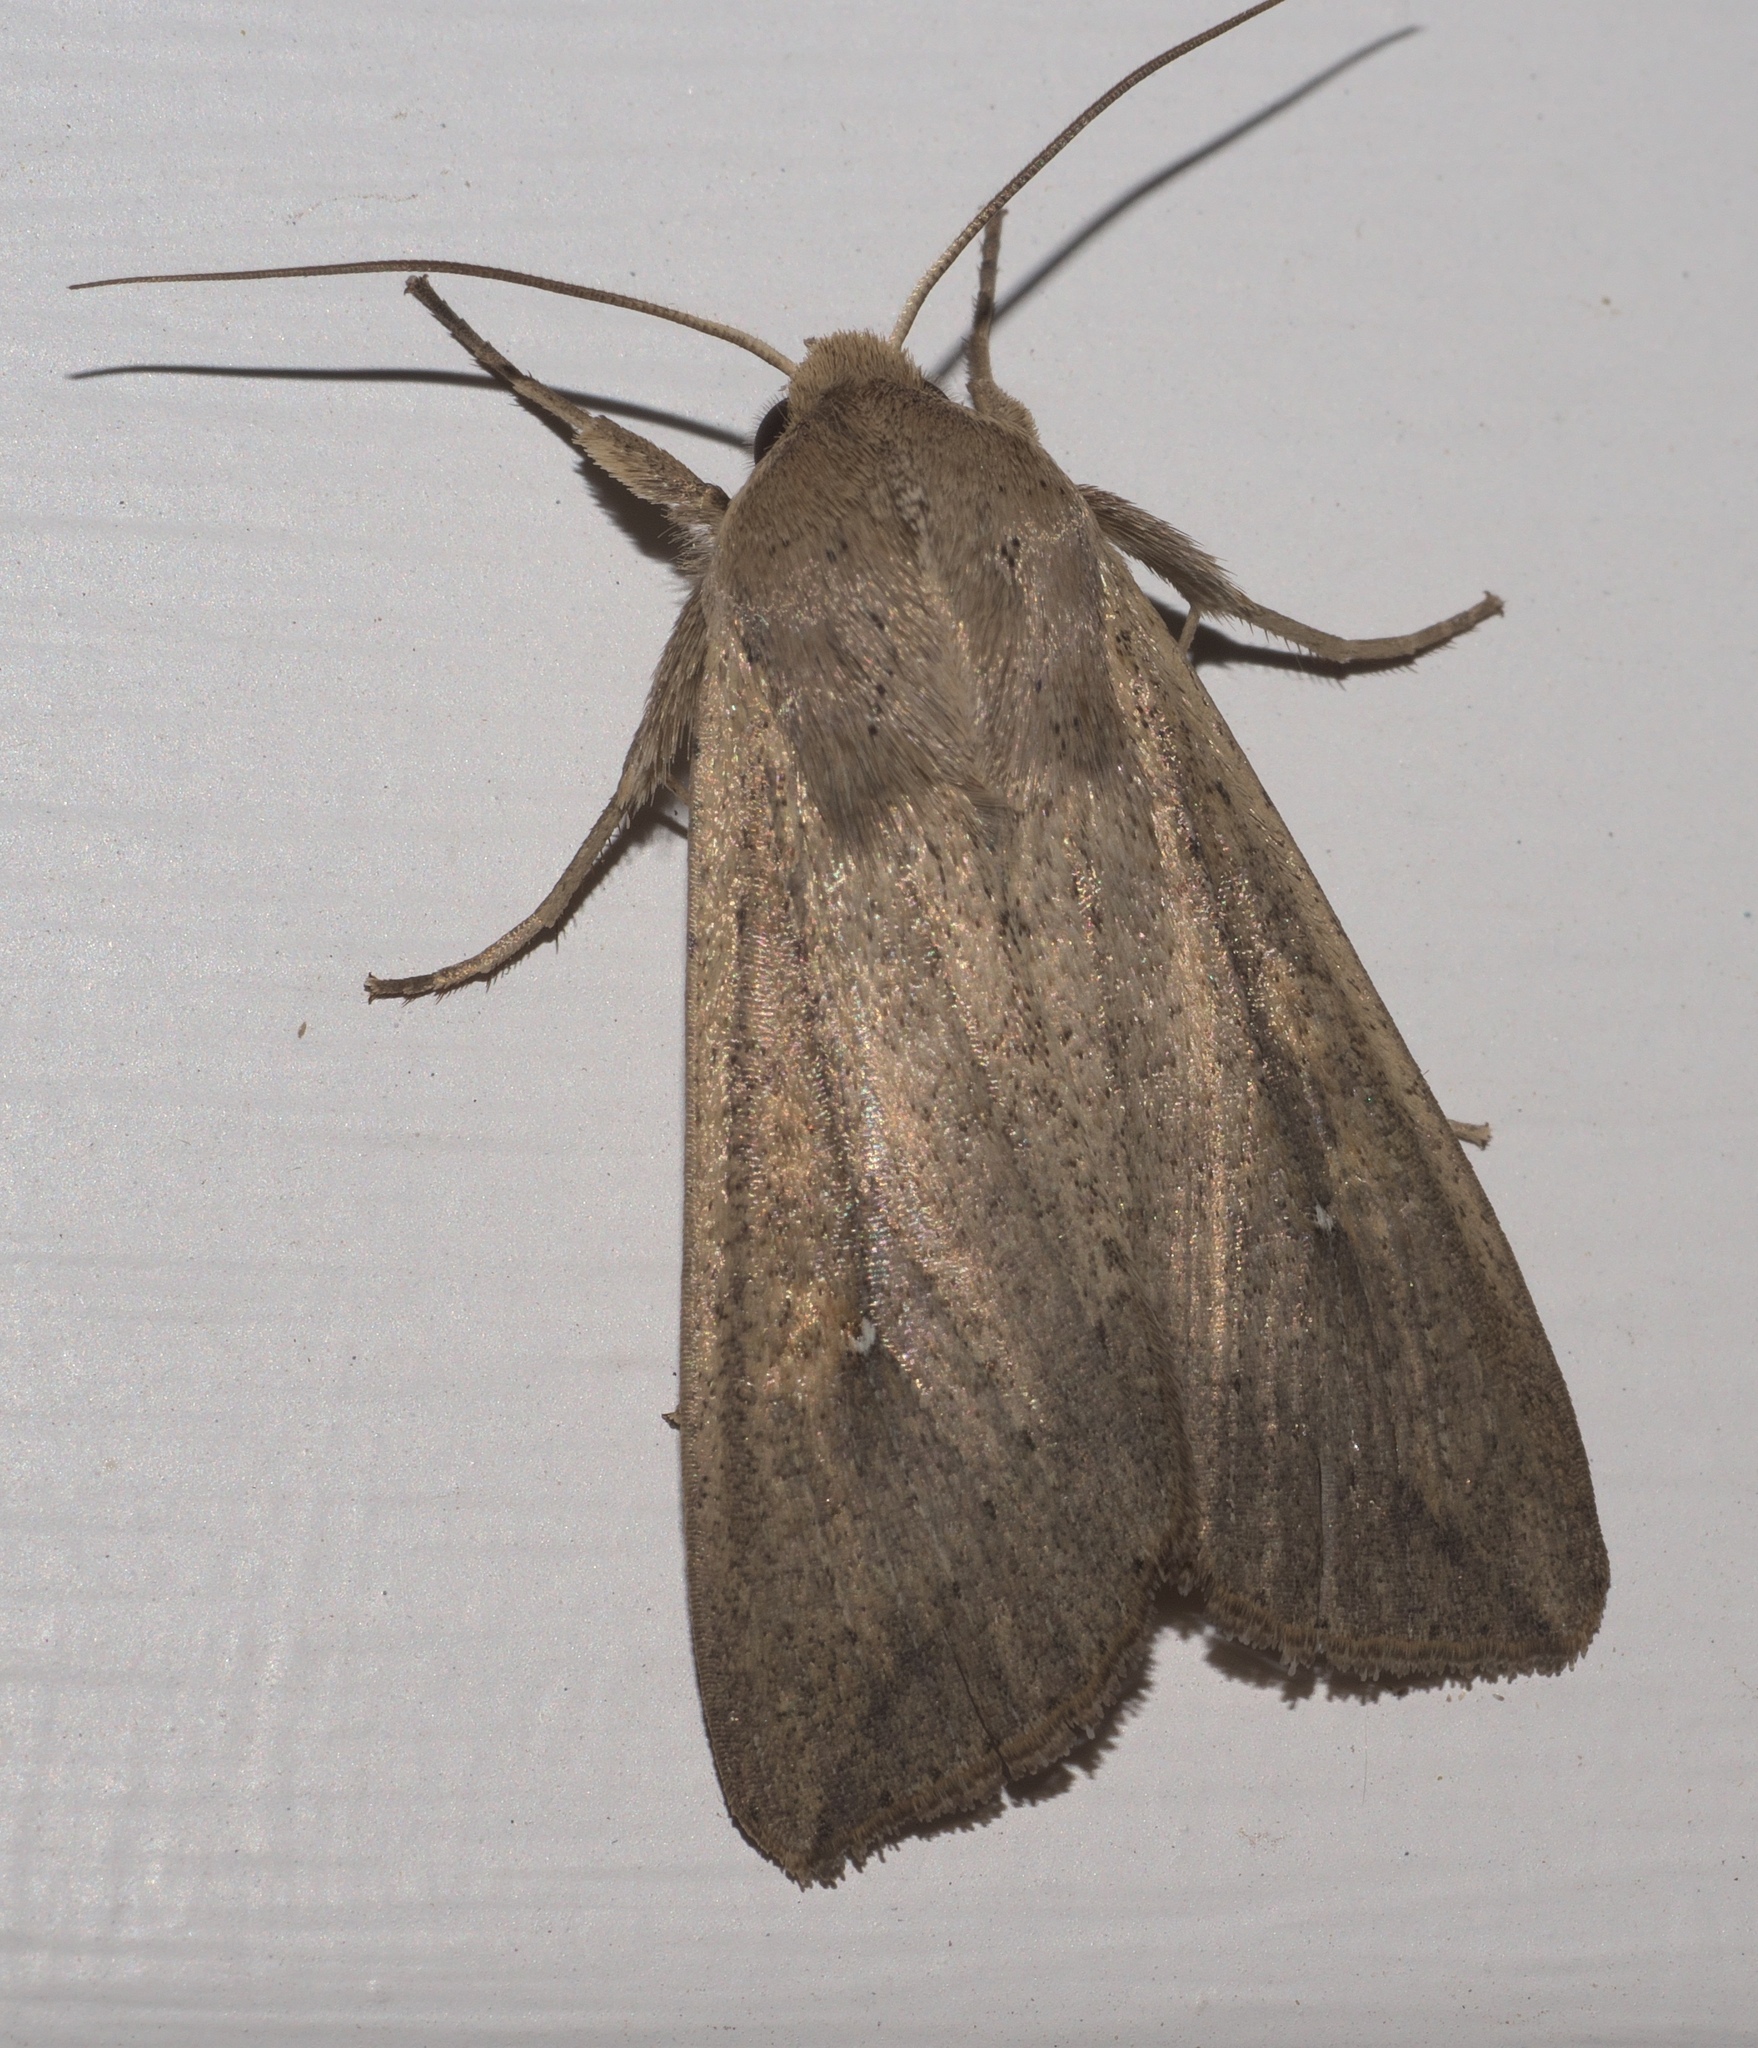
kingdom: Animalia
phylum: Arthropoda
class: Insecta
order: Lepidoptera
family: Noctuidae
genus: Mythimna
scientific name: Mythimna unipuncta
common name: White-speck
